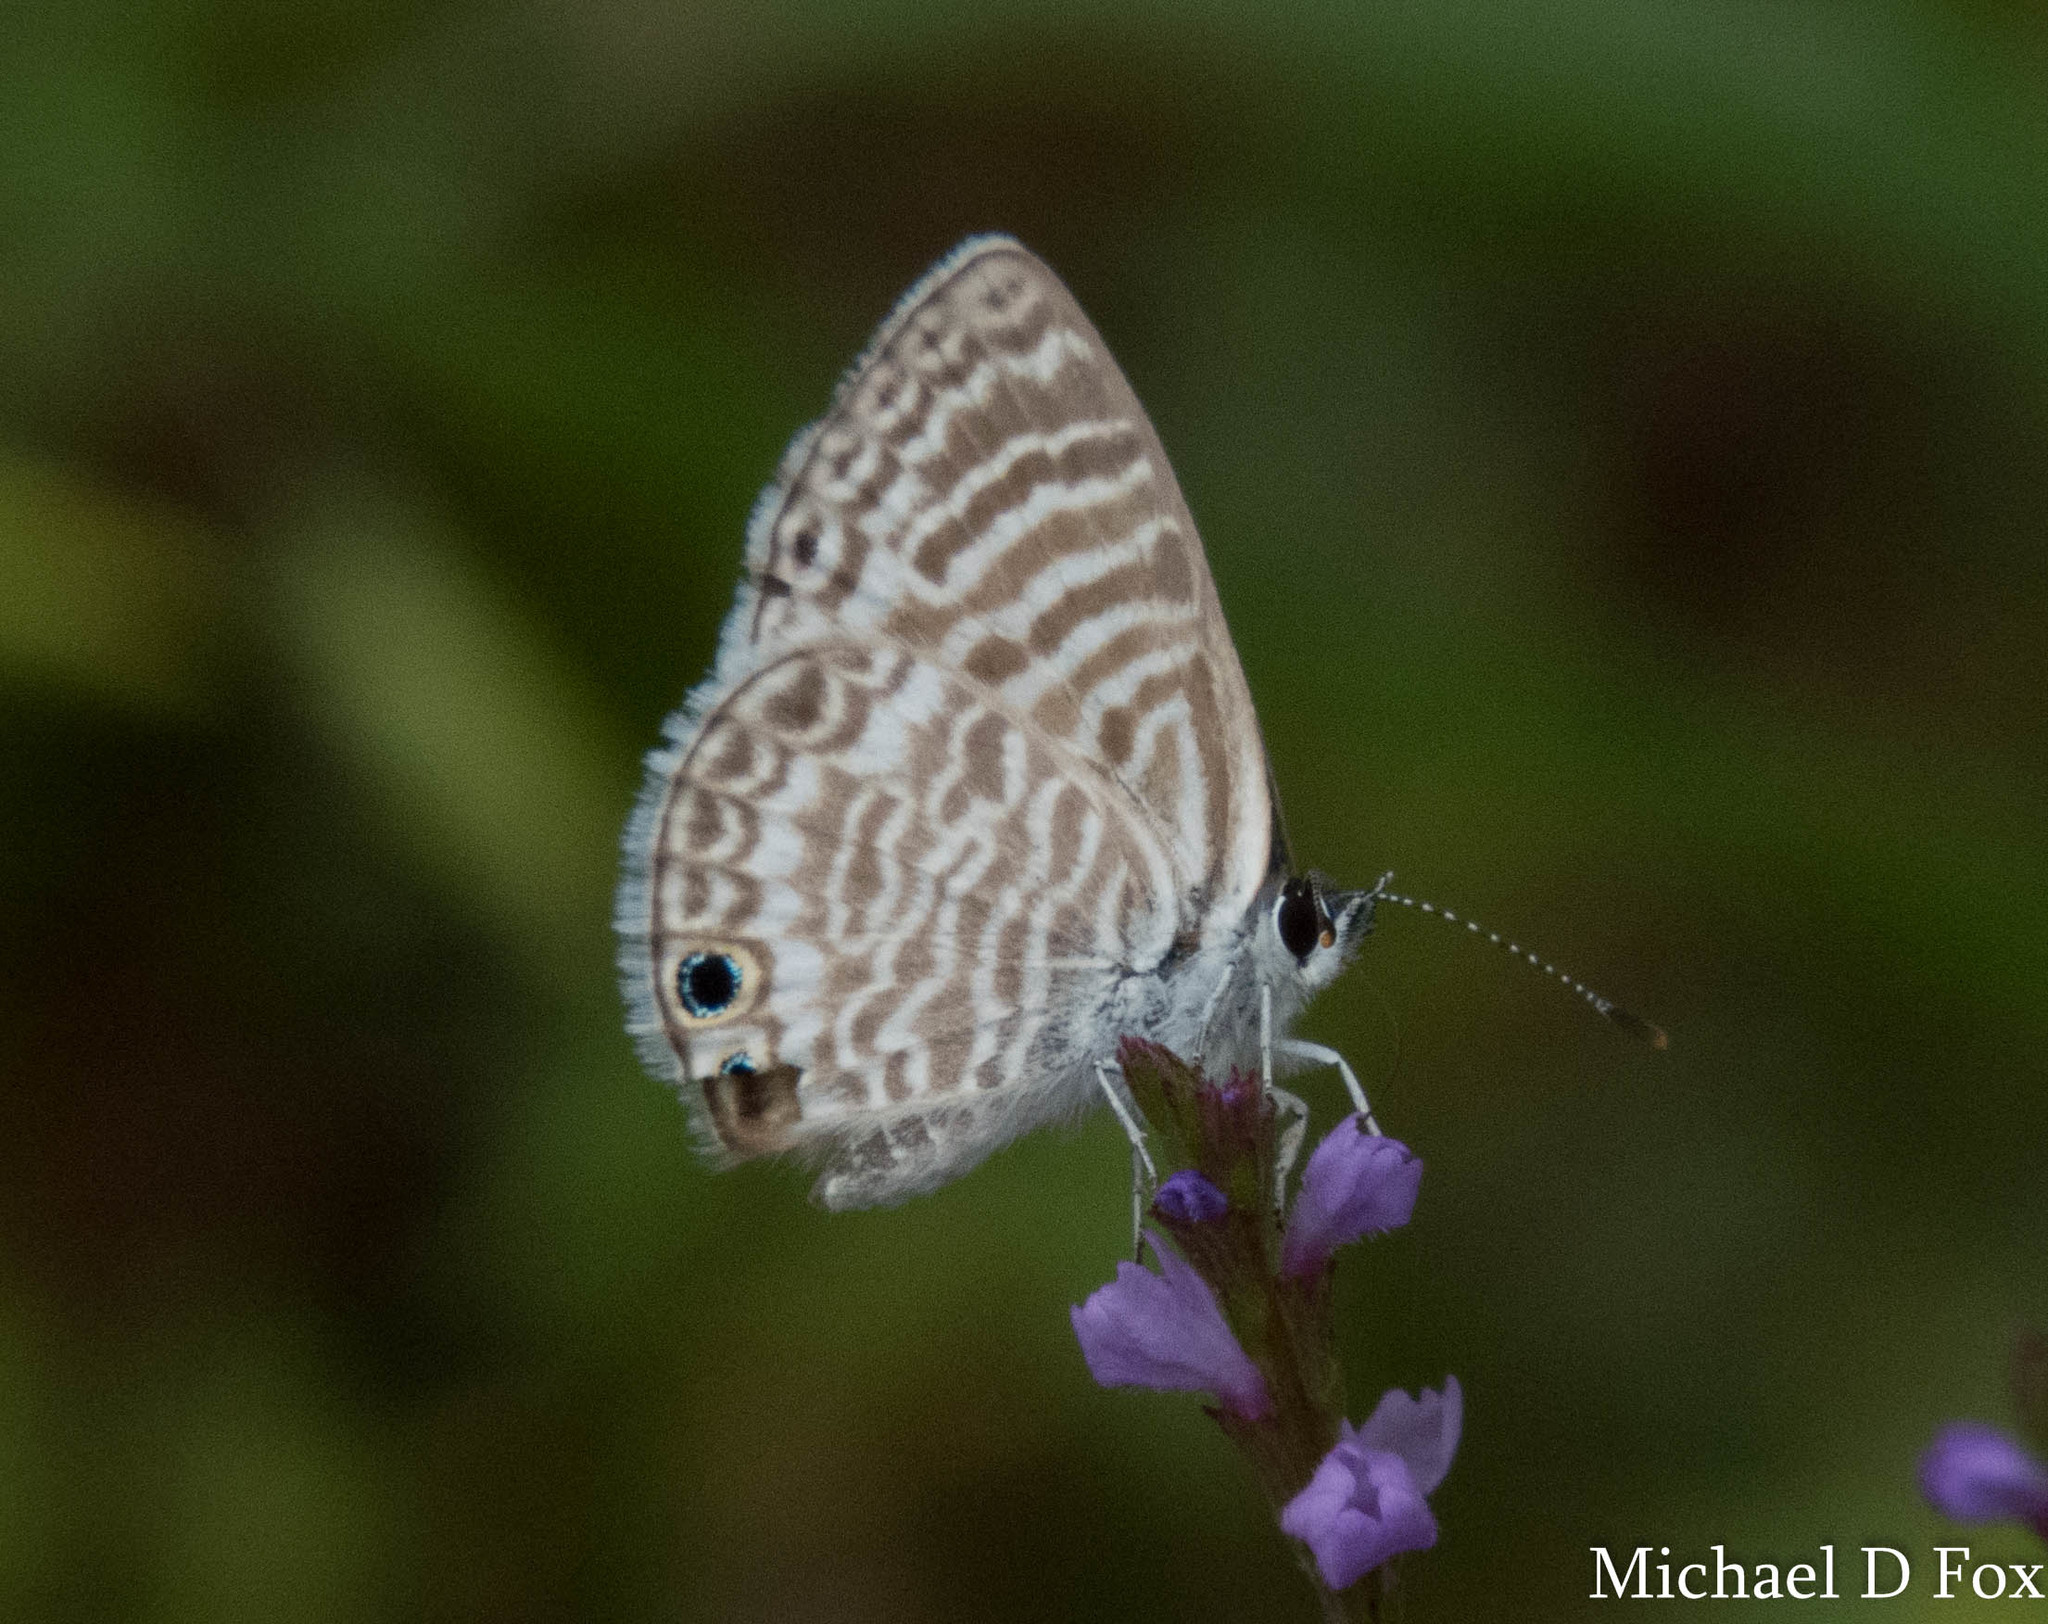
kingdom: Animalia
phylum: Arthropoda
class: Insecta
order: Lepidoptera
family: Lycaenidae
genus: Leptotes
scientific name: Leptotes marina
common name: Marine blue
